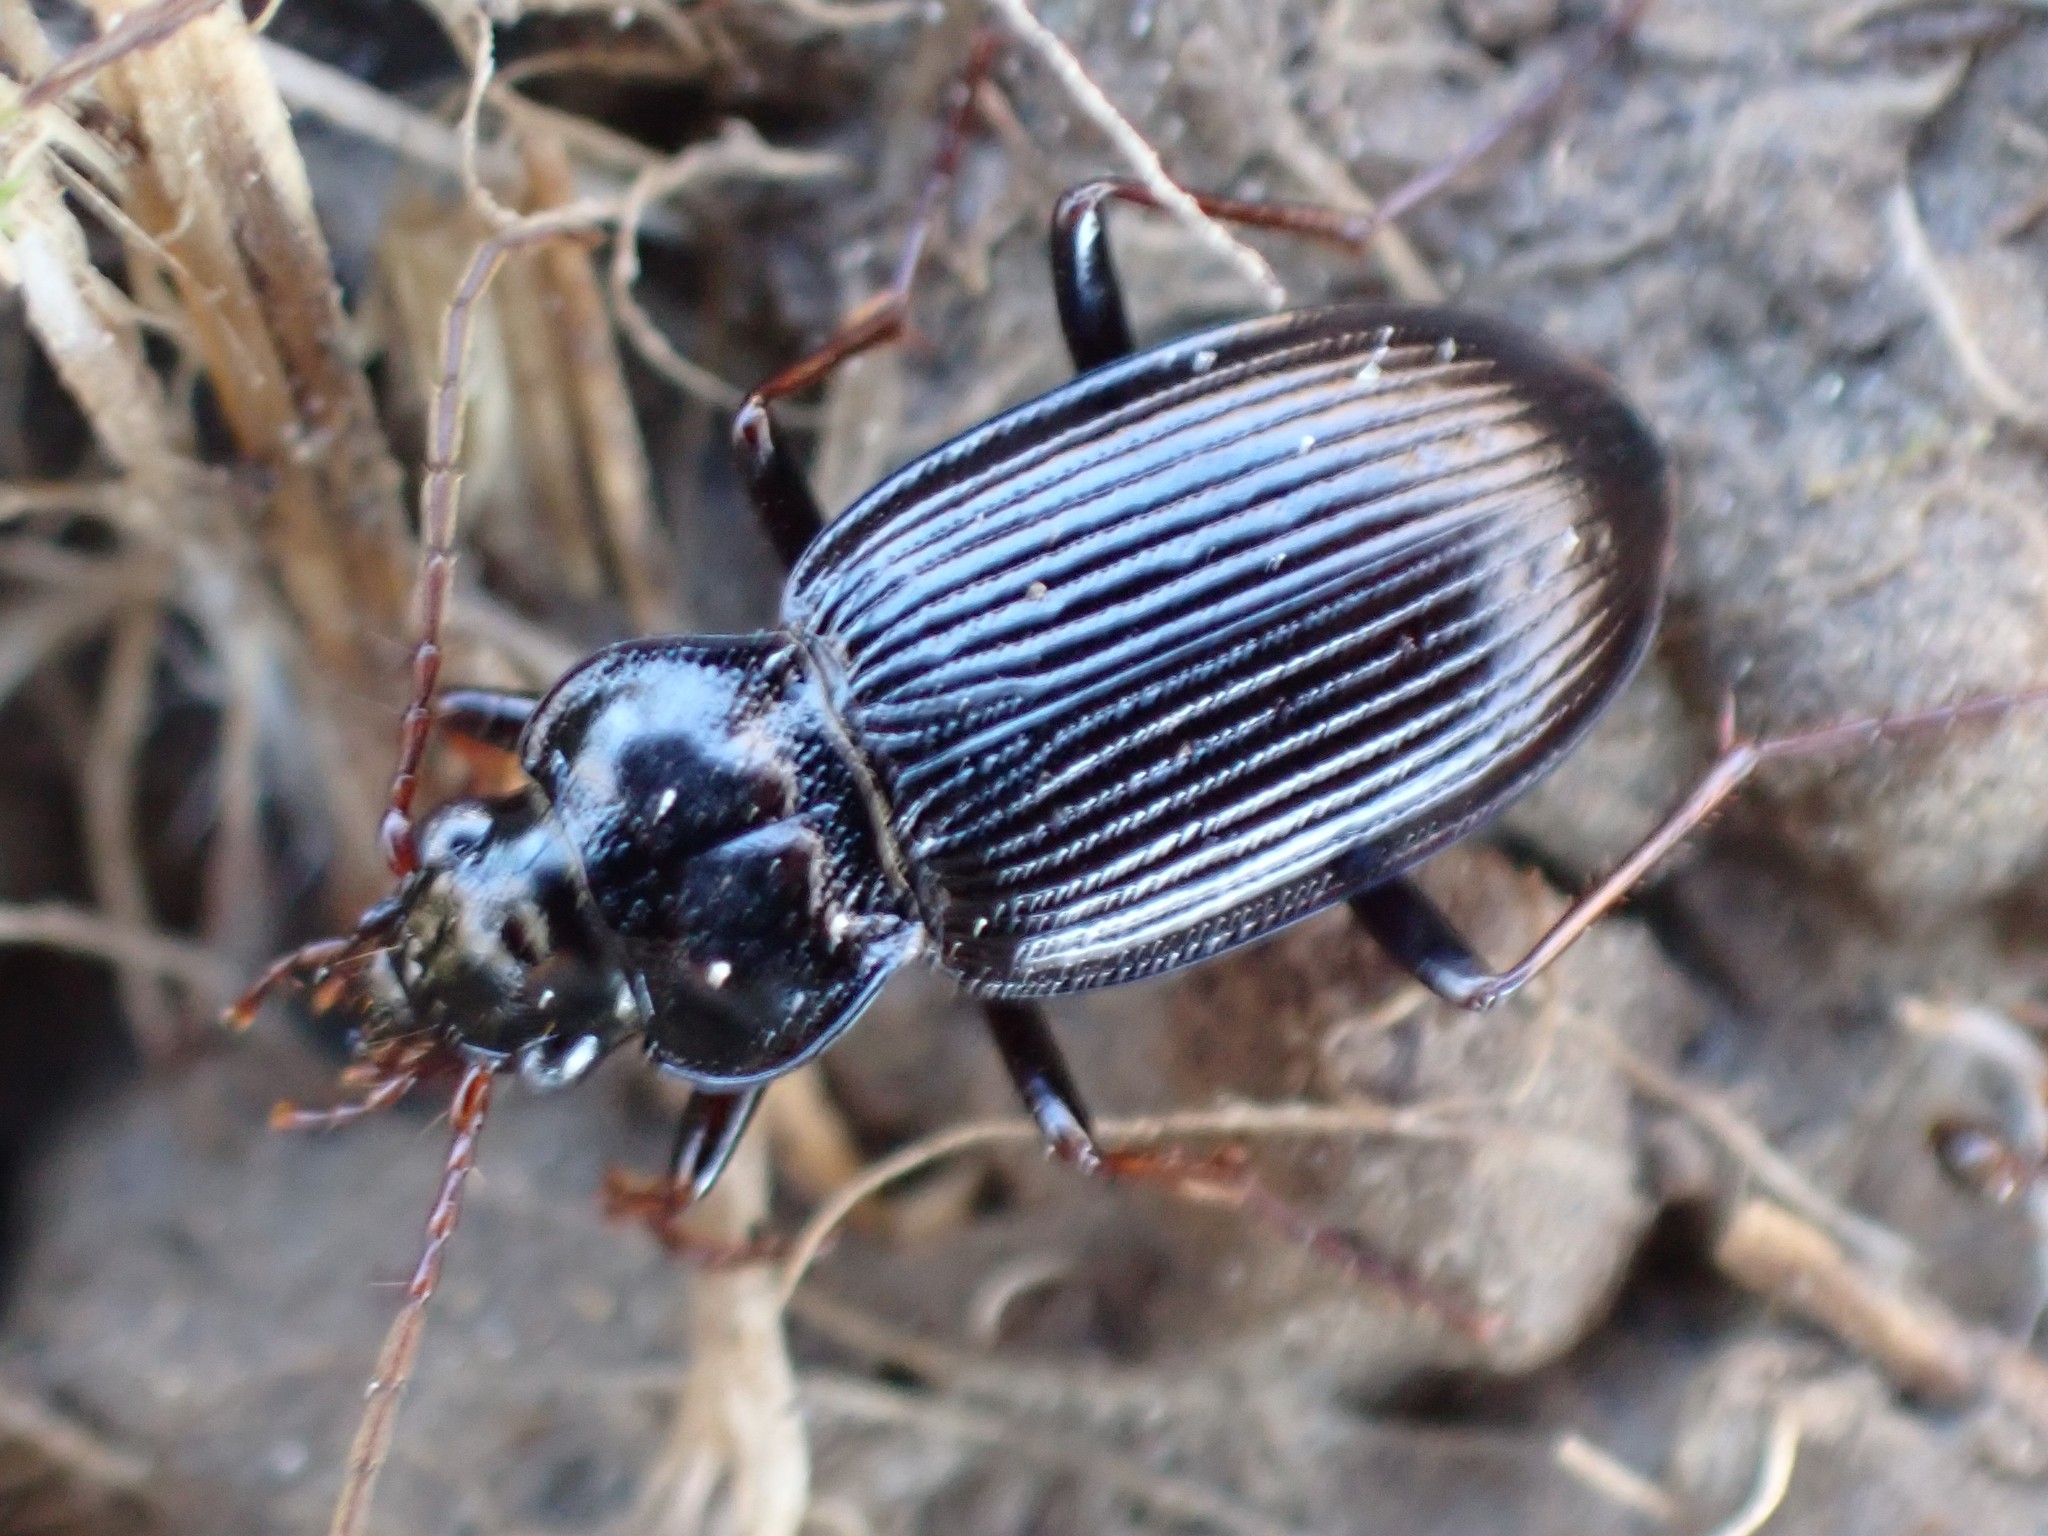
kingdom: Animalia
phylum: Arthropoda
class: Insecta
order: Coleoptera
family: Carabidae
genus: Nebria
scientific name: Nebria brevicollis
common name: Short-necked gazelle beetle
